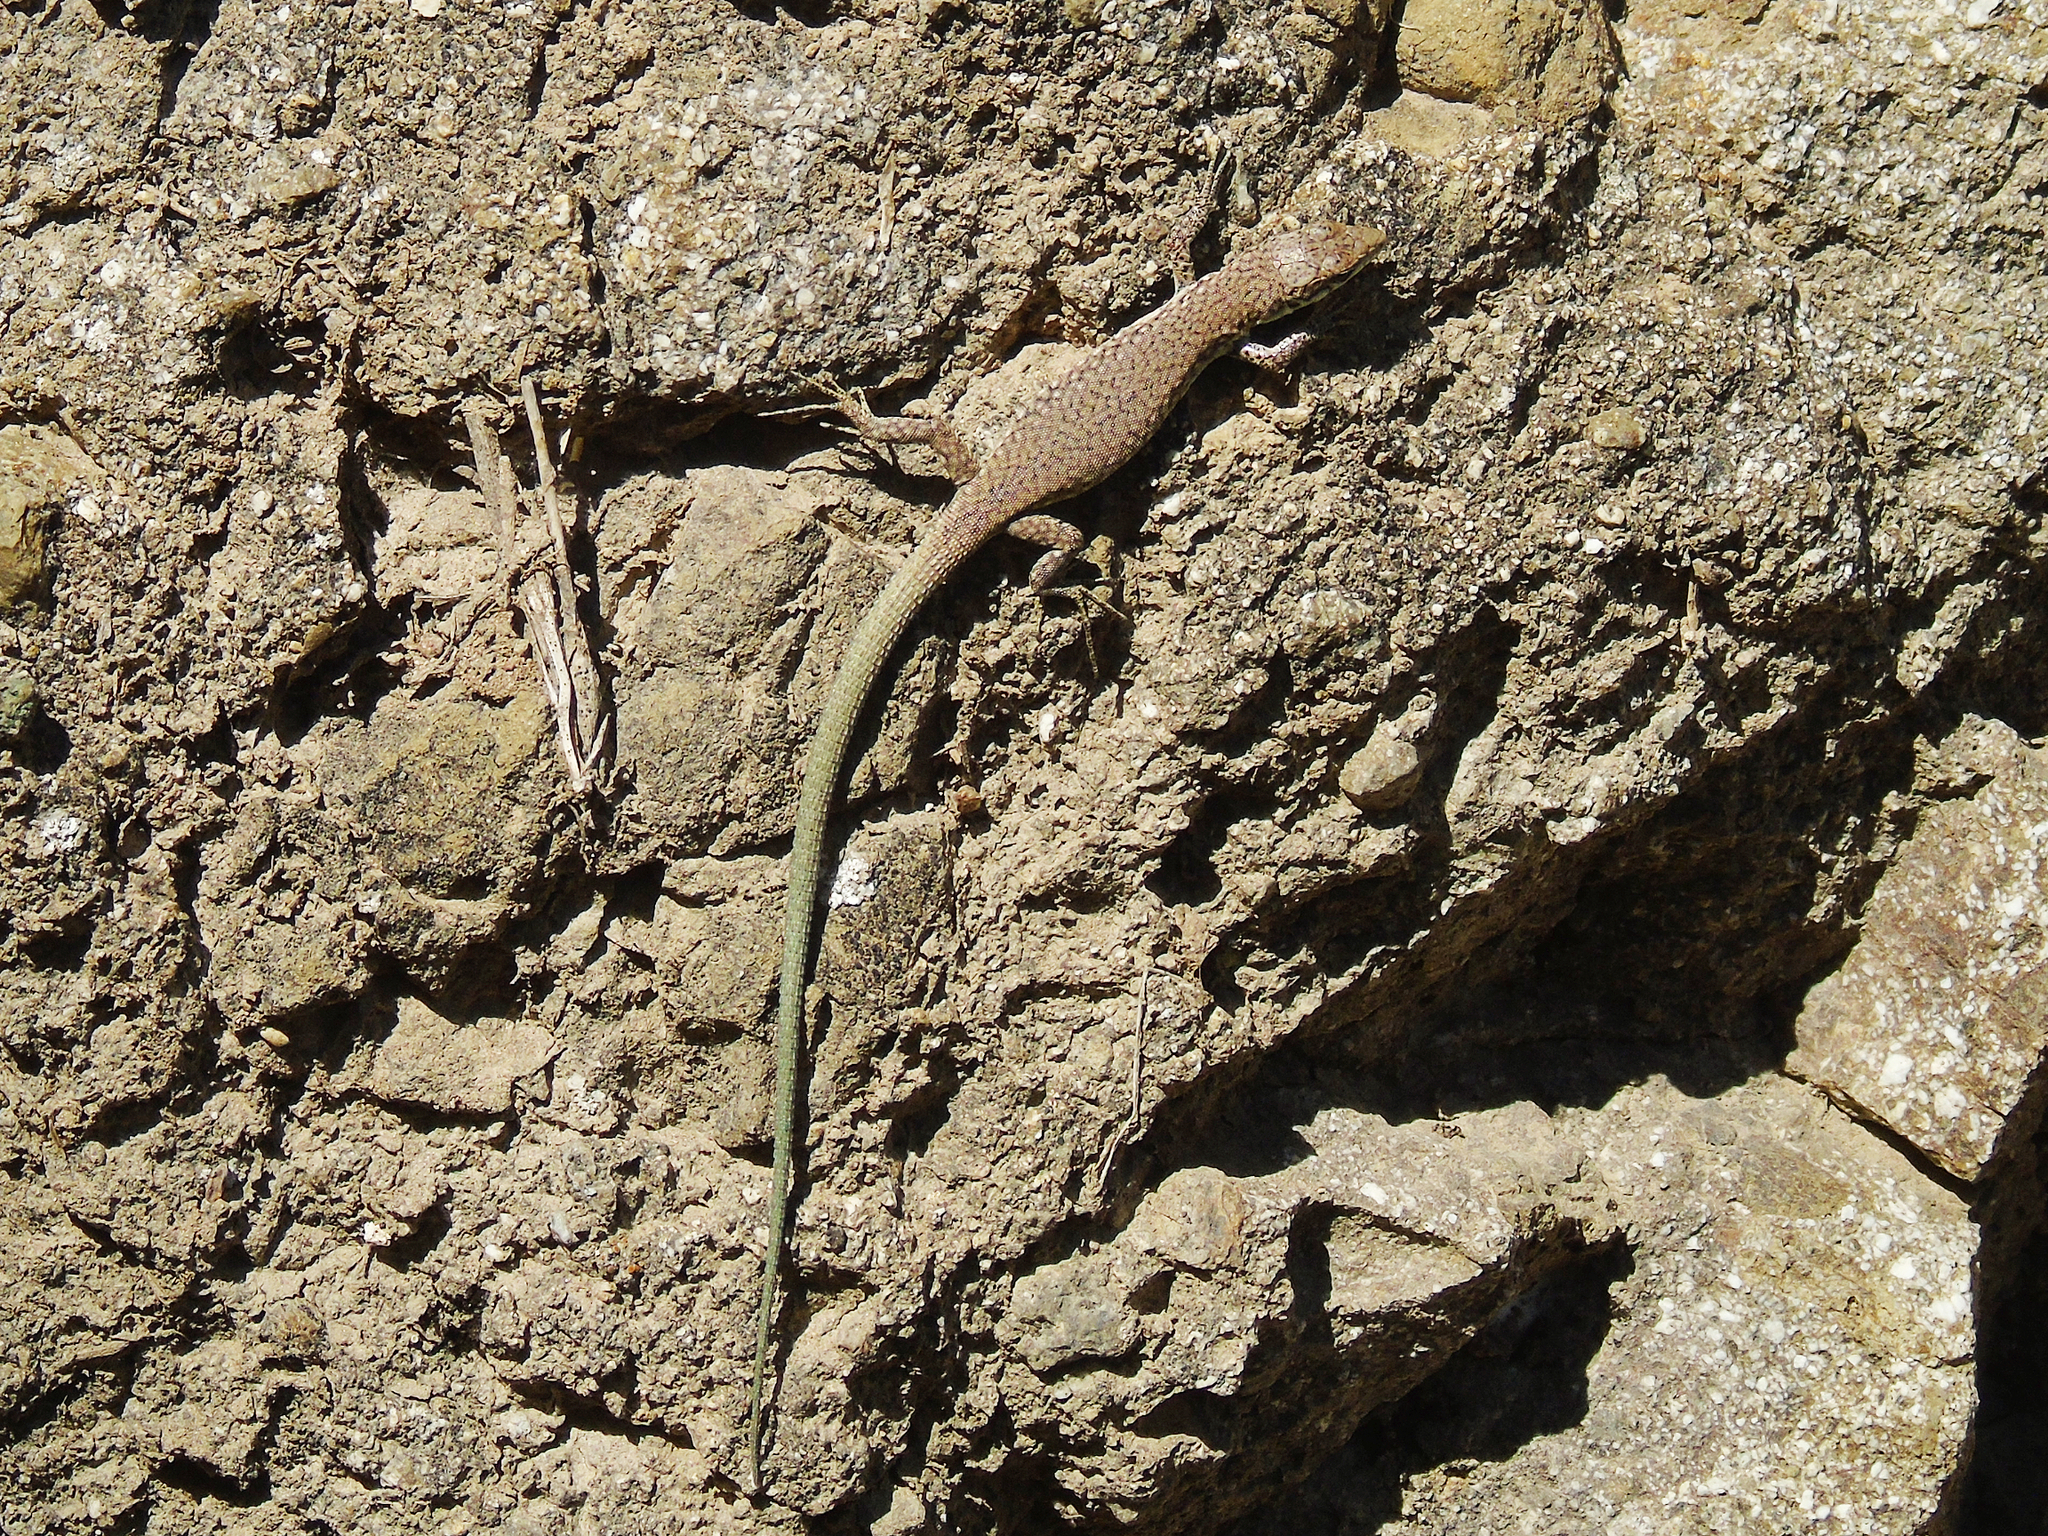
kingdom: Animalia
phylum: Chordata
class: Squamata
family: Lacertidae
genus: Darevskia
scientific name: Darevskia portschinskii
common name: River kura lizard
